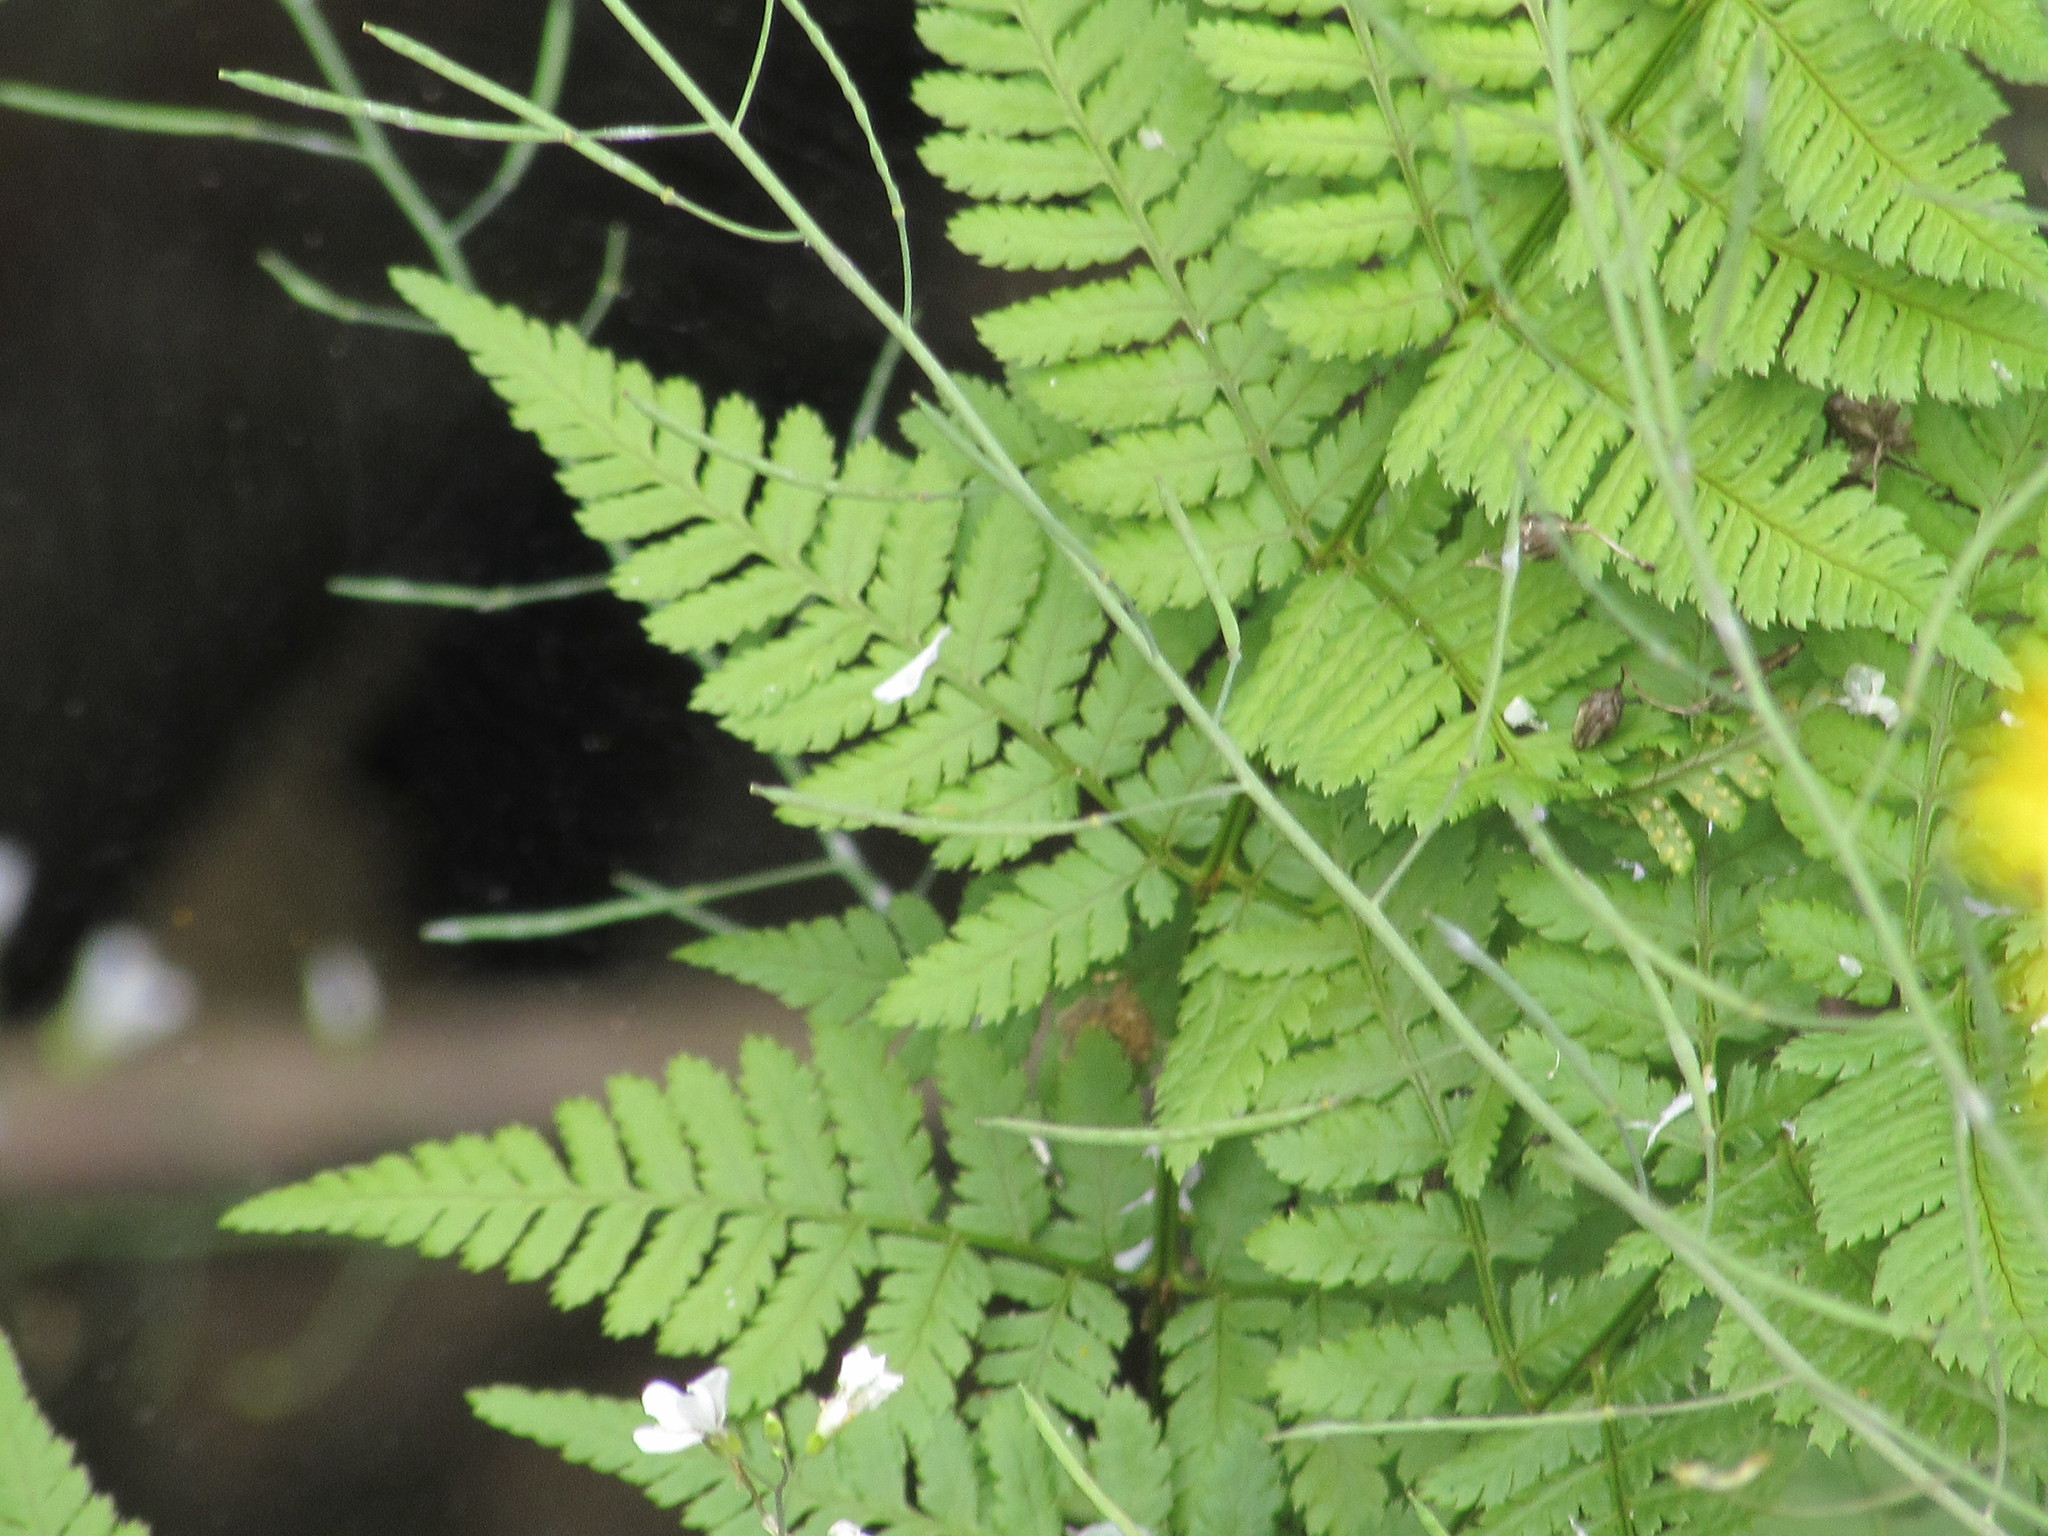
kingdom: Plantae
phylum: Tracheophyta
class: Polypodiopsida
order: Polypodiales
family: Dryopteridaceae
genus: Dryopteris
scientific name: Dryopteris carthusiana
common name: Narrow buckler-fern
